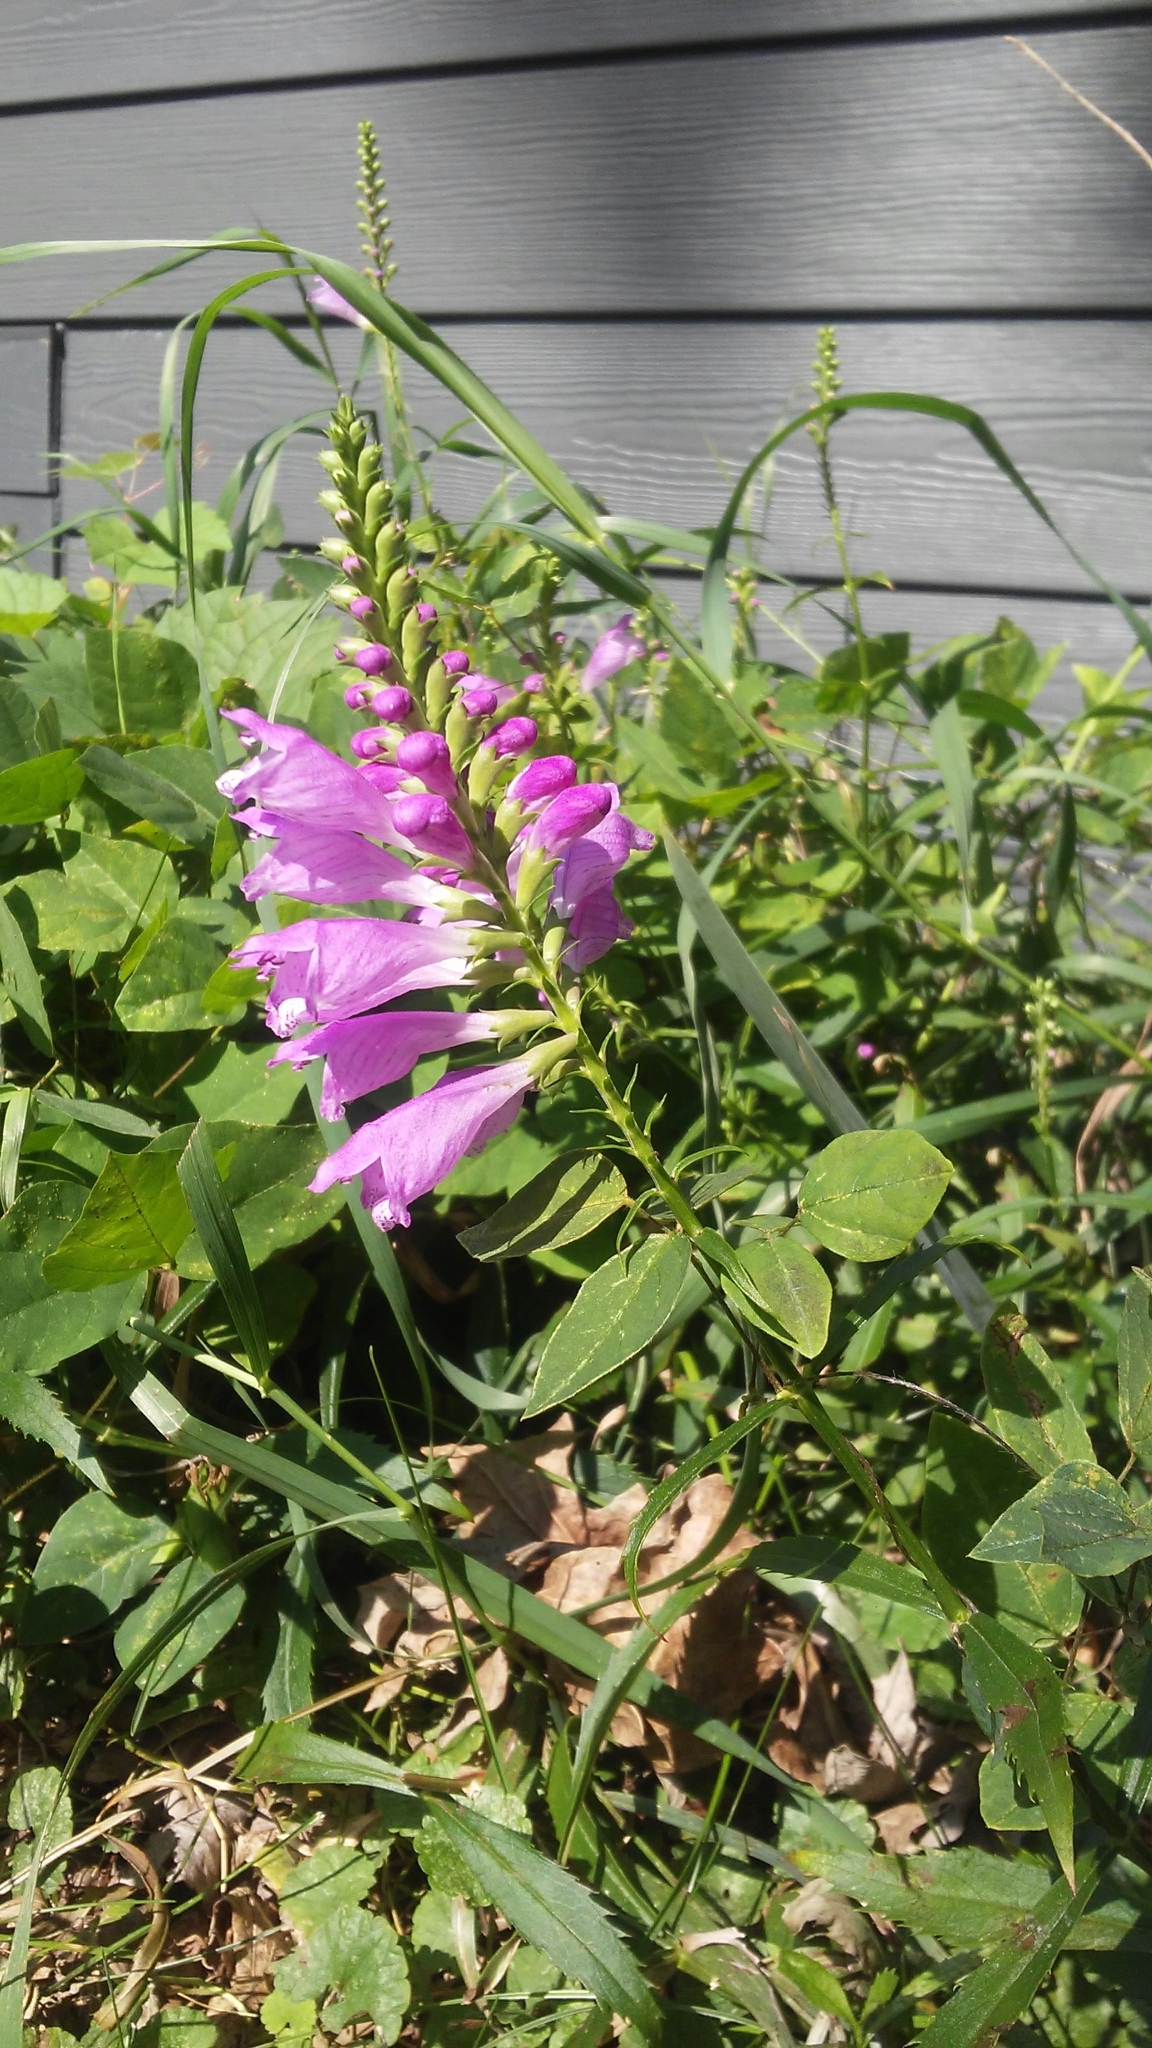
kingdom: Plantae
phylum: Tracheophyta
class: Magnoliopsida
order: Lamiales
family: Lamiaceae
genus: Physostegia
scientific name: Physostegia virginiana
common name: Obedient-plant
